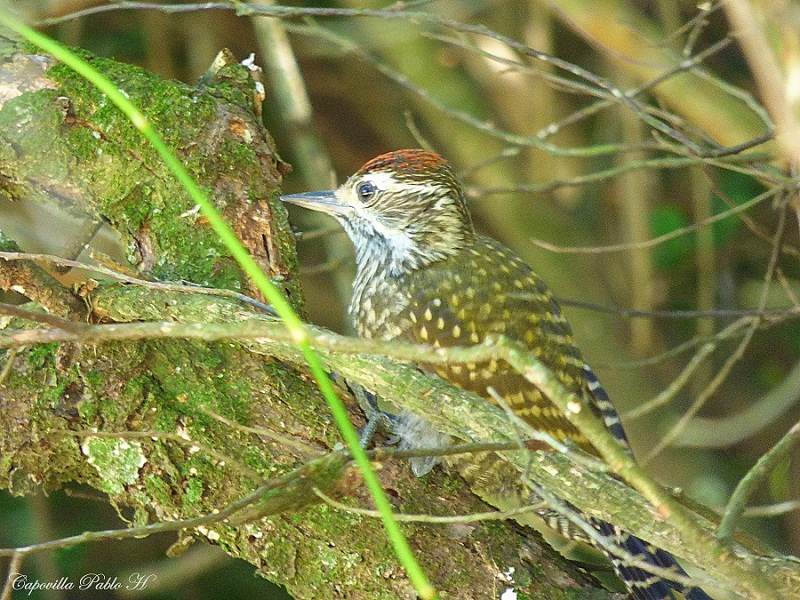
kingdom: Animalia
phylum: Chordata
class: Aves
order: Piciformes
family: Picidae
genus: Veniliornis
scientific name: Veniliornis spilogaster
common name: White-spotted woodpecker
